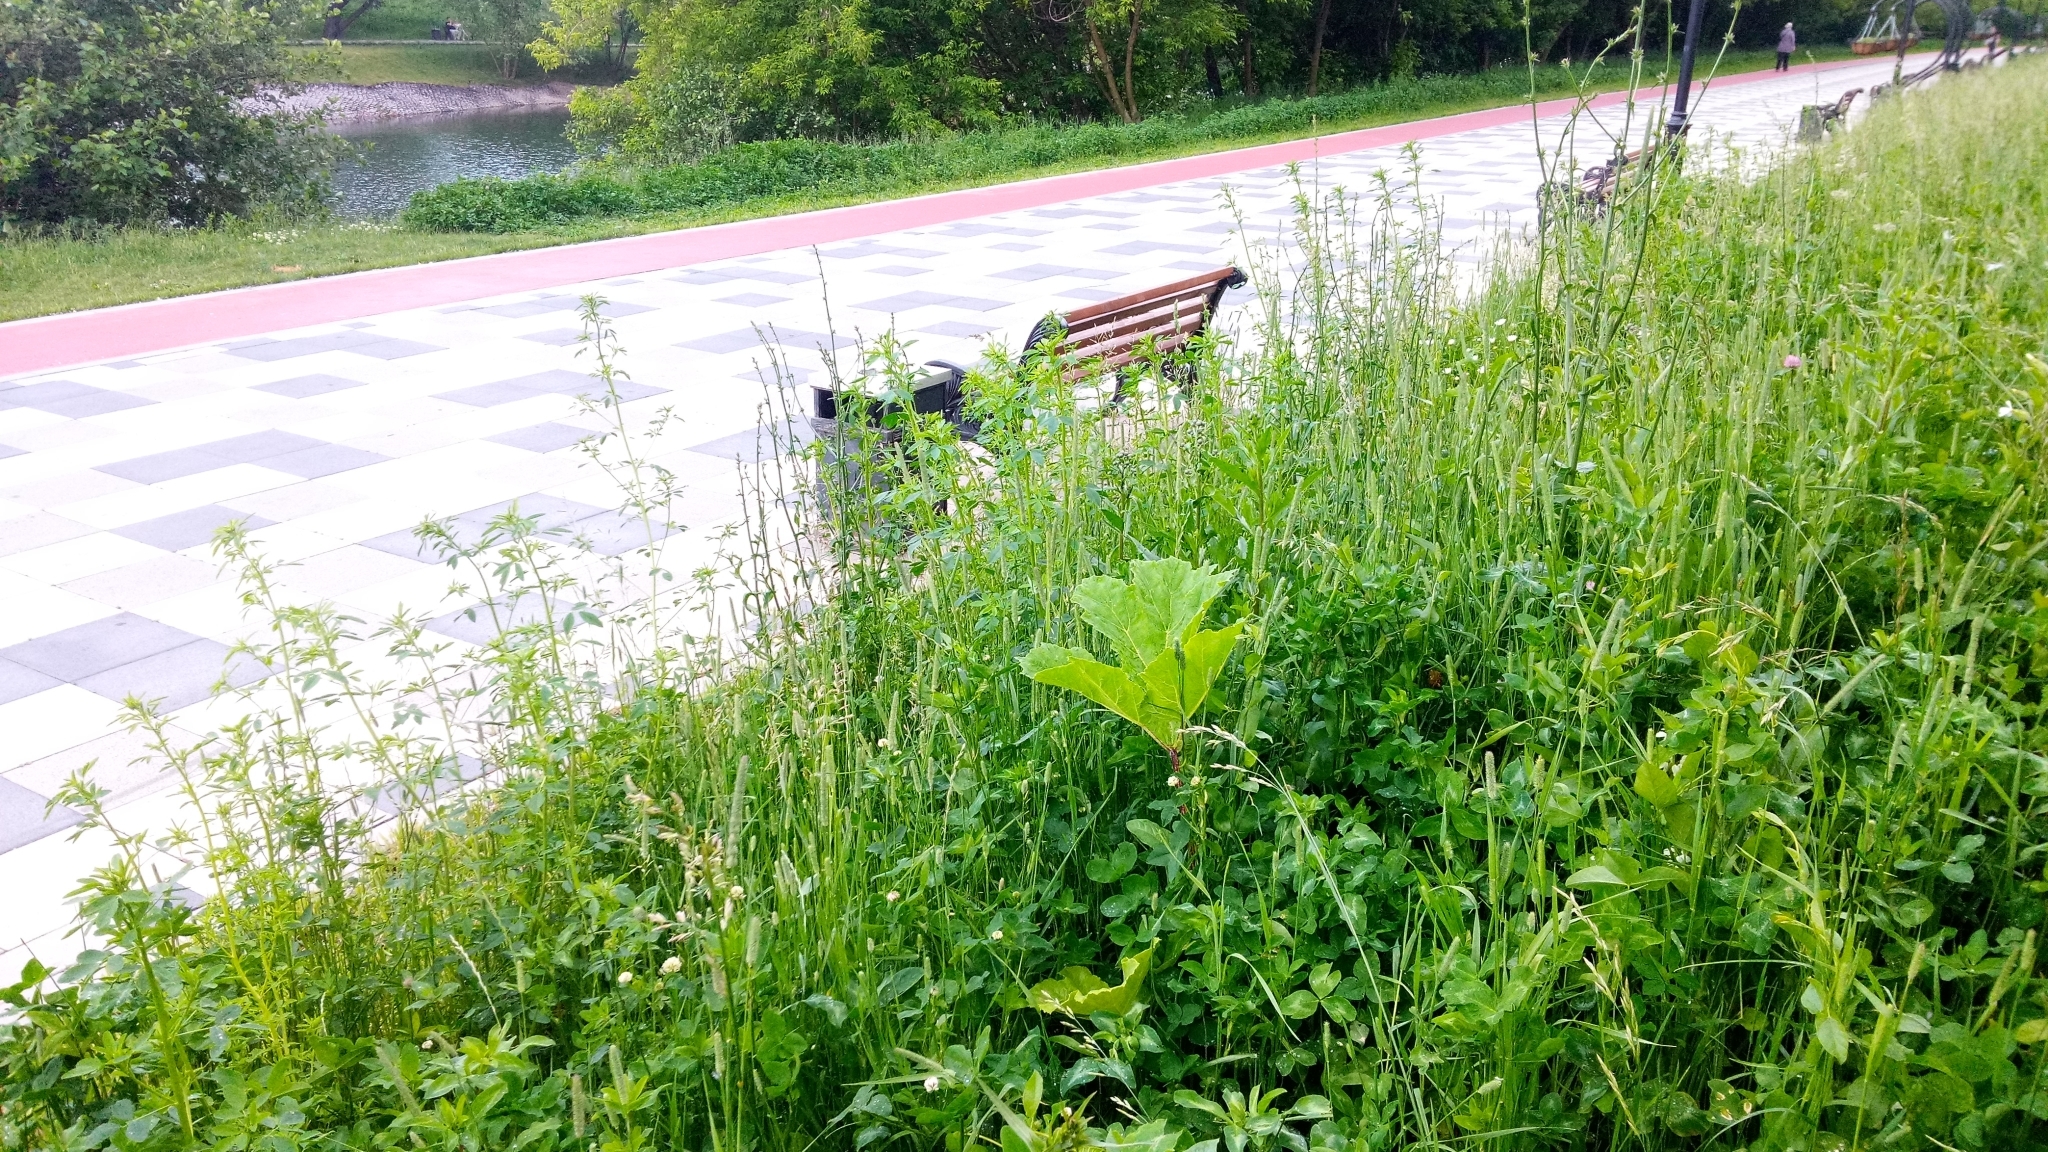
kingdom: Plantae
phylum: Tracheophyta
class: Magnoliopsida
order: Apiales
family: Apiaceae
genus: Heracleum
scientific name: Heracleum sosnowskyi
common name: Sosnowsky's hogweed
